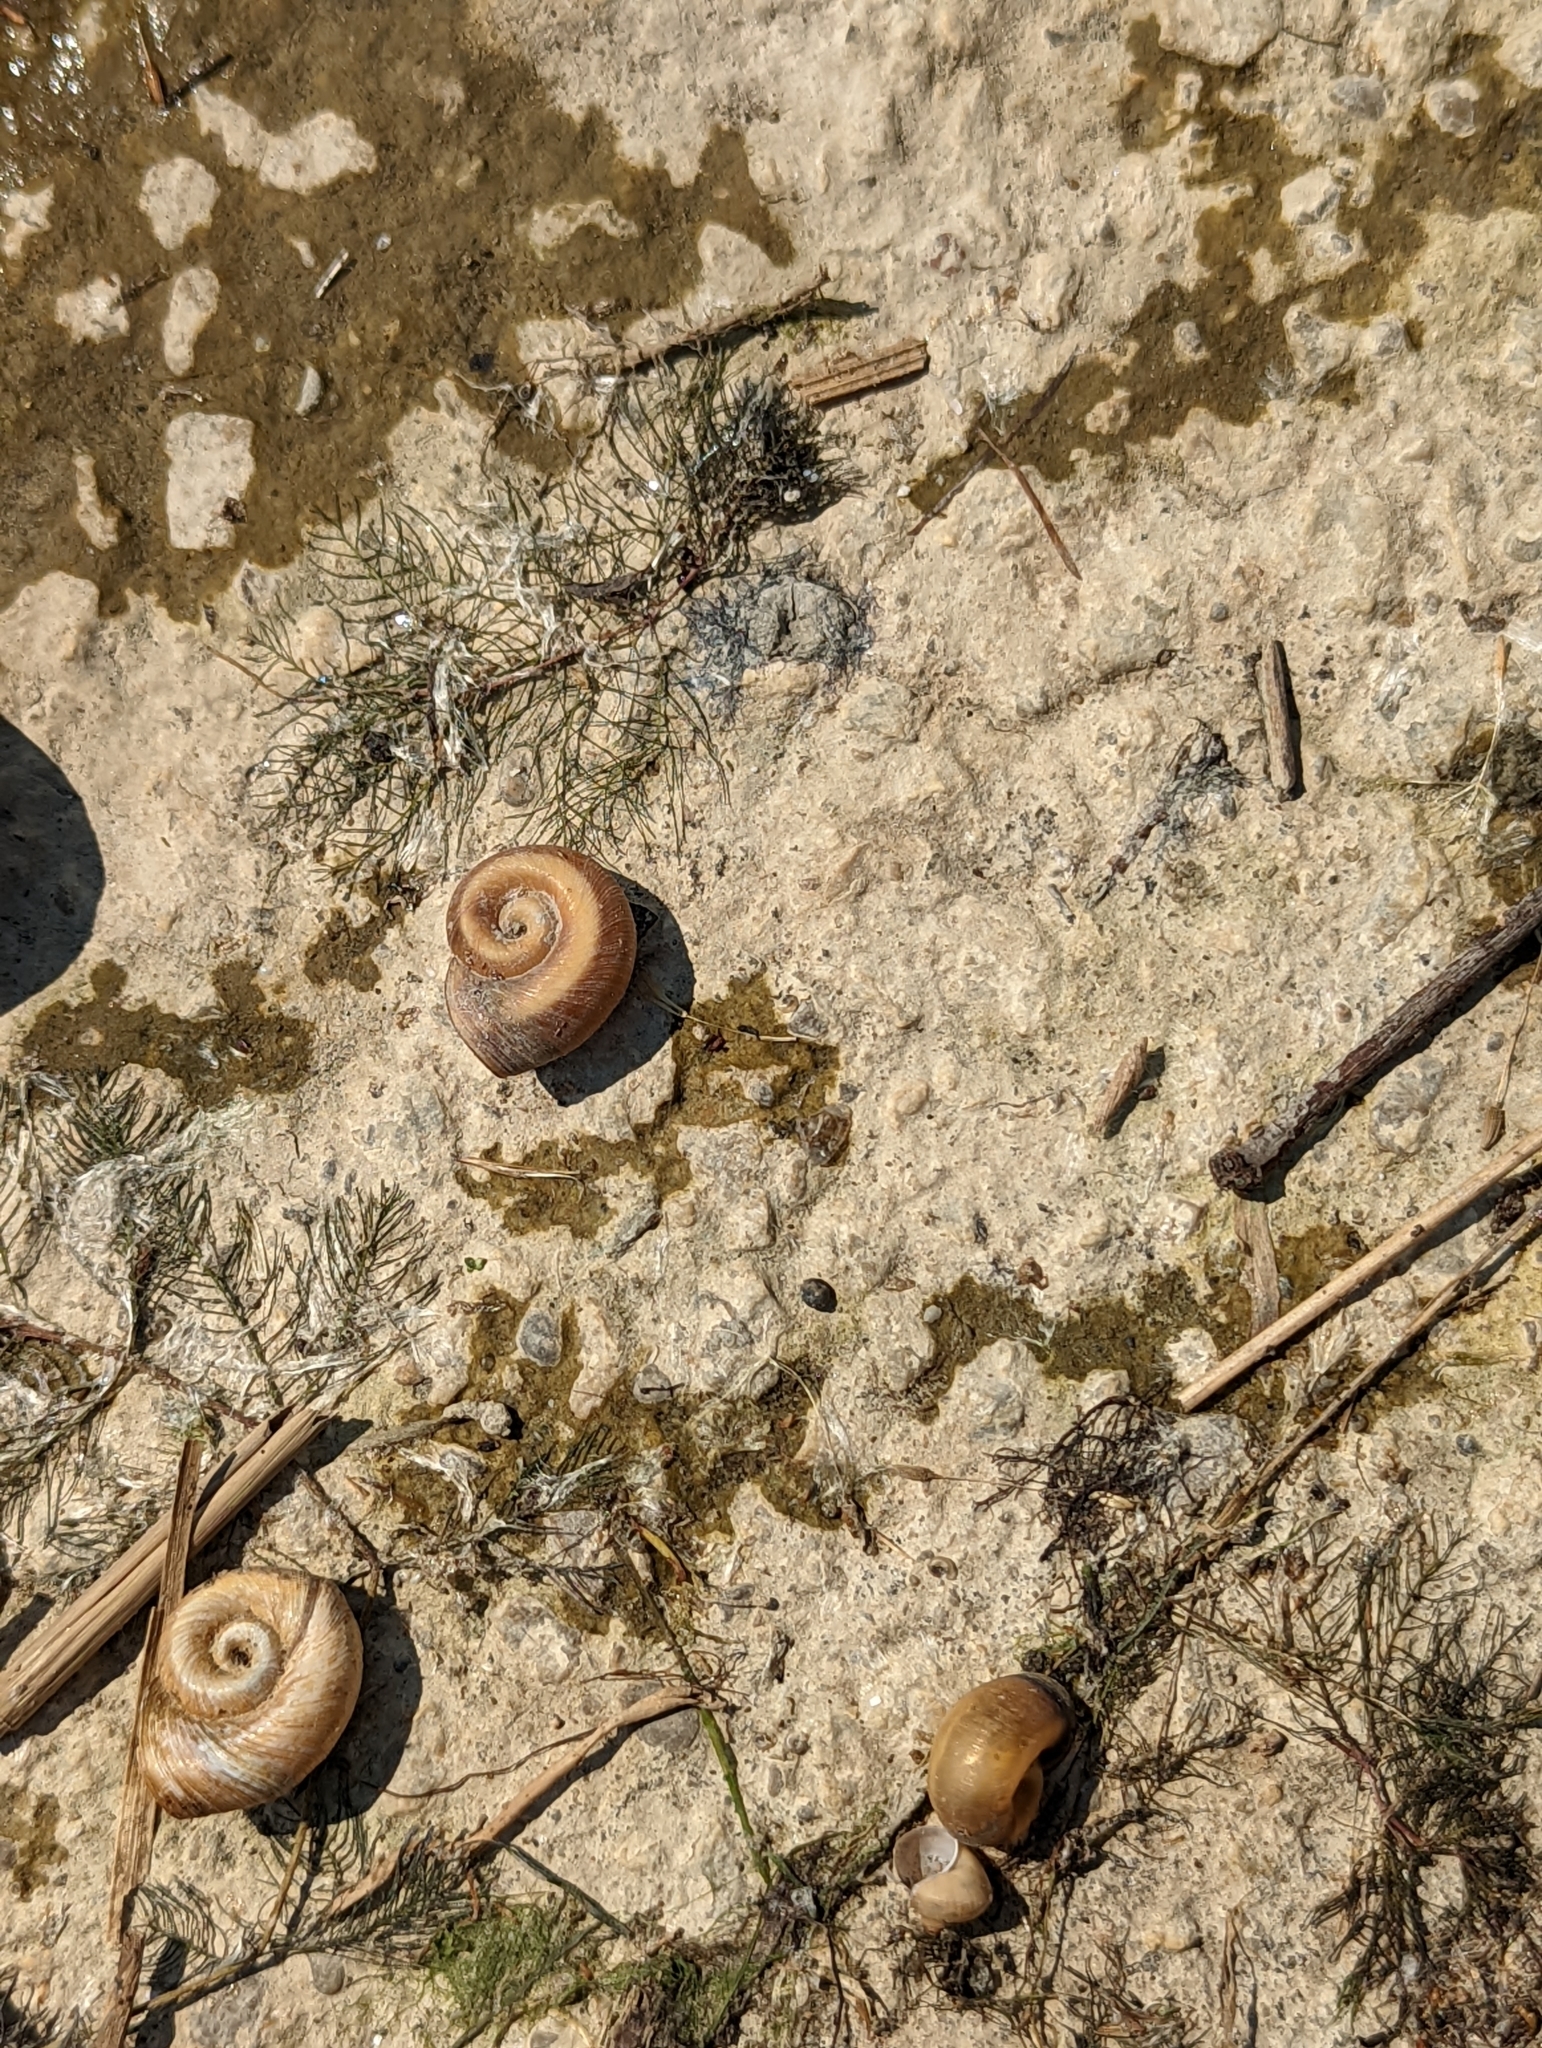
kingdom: Animalia
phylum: Mollusca
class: Gastropoda
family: Planorbidae
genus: Planorbella
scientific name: Planorbella trivolvis
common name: Marsh rams-horn
